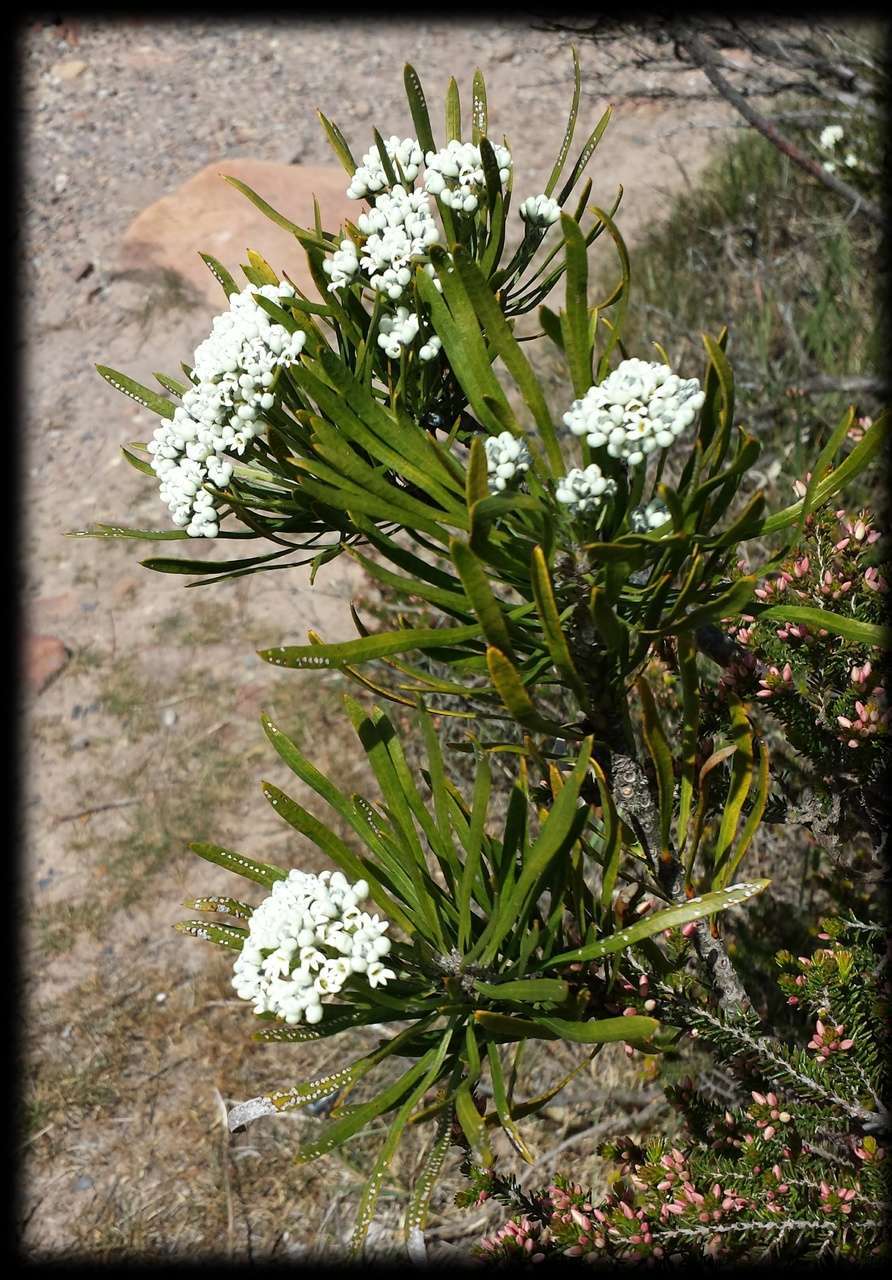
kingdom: Plantae
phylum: Tracheophyta
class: Magnoliopsida
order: Proteales
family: Proteaceae
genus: Conospermum
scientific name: Conospermum mitchellii
